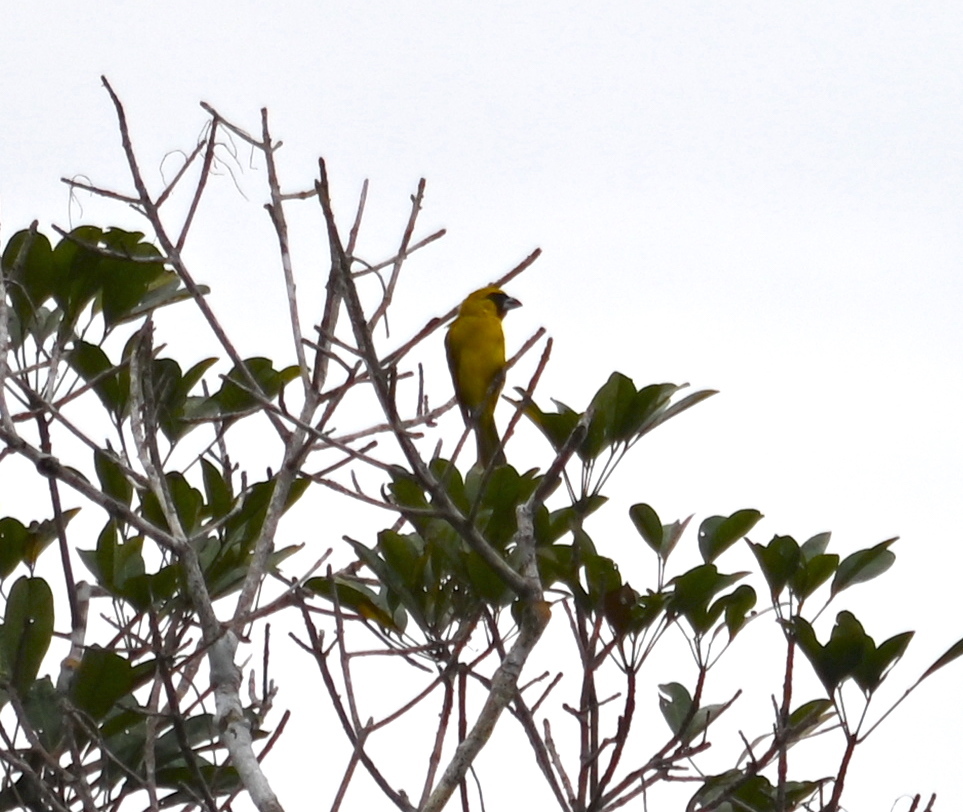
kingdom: Animalia
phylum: Chordata
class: Aves
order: Passeriformes
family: Cardinalidae
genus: Caryothraustes
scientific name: Caryothraustes canadensis
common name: Yellow-green grosbeak
